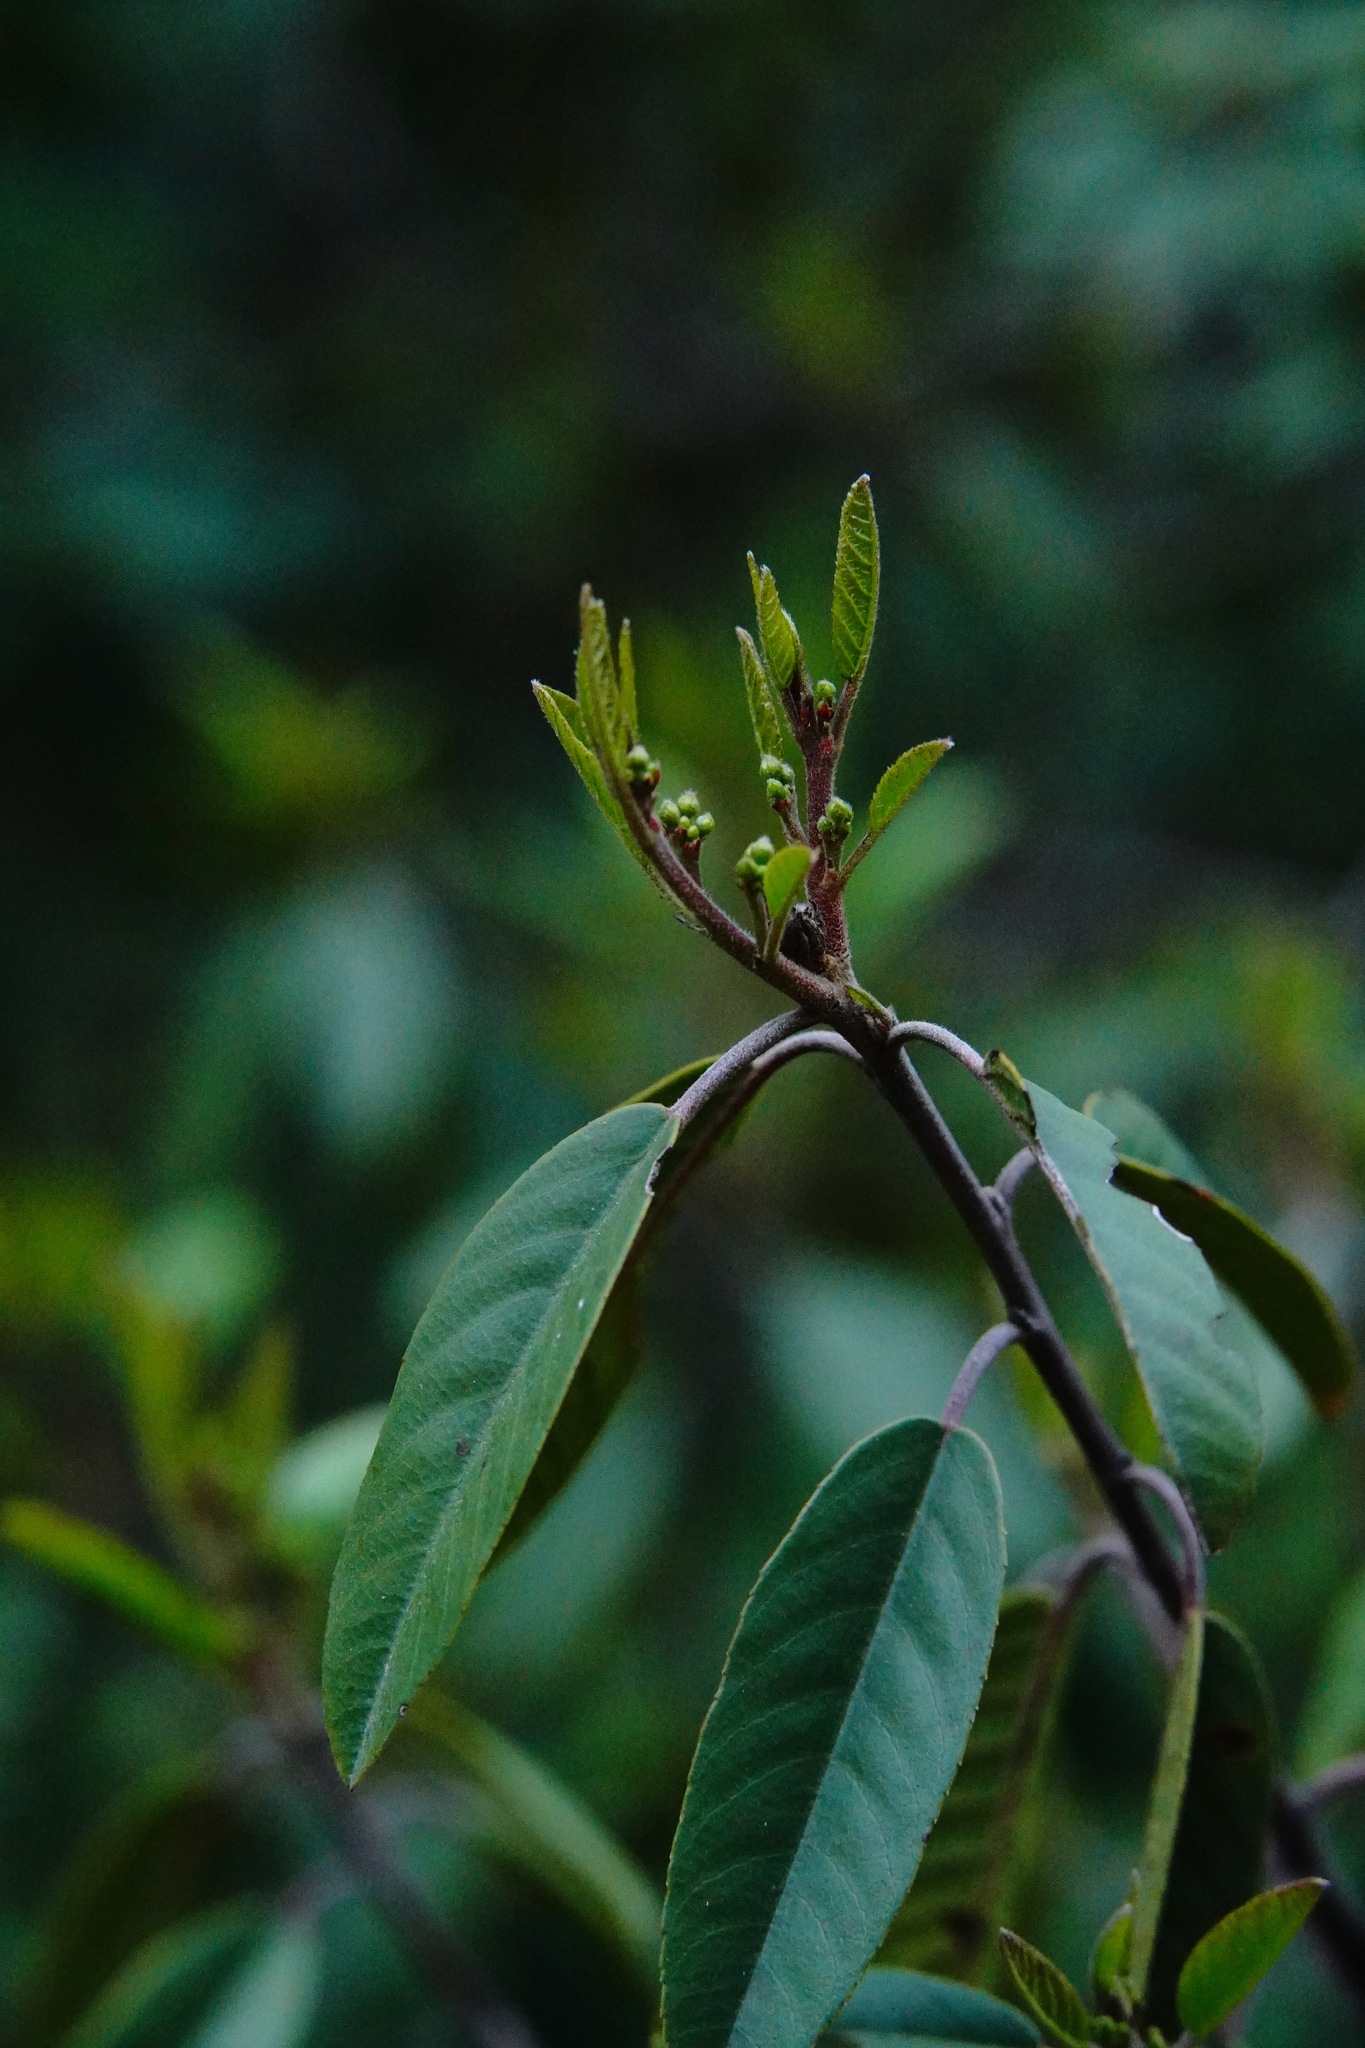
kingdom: Plantae
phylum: Tracheophyta
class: Magnoliopsida
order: Rosales
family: Rhamnaceae
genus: Frangula
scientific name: Frangula californica
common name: California buckthorn
